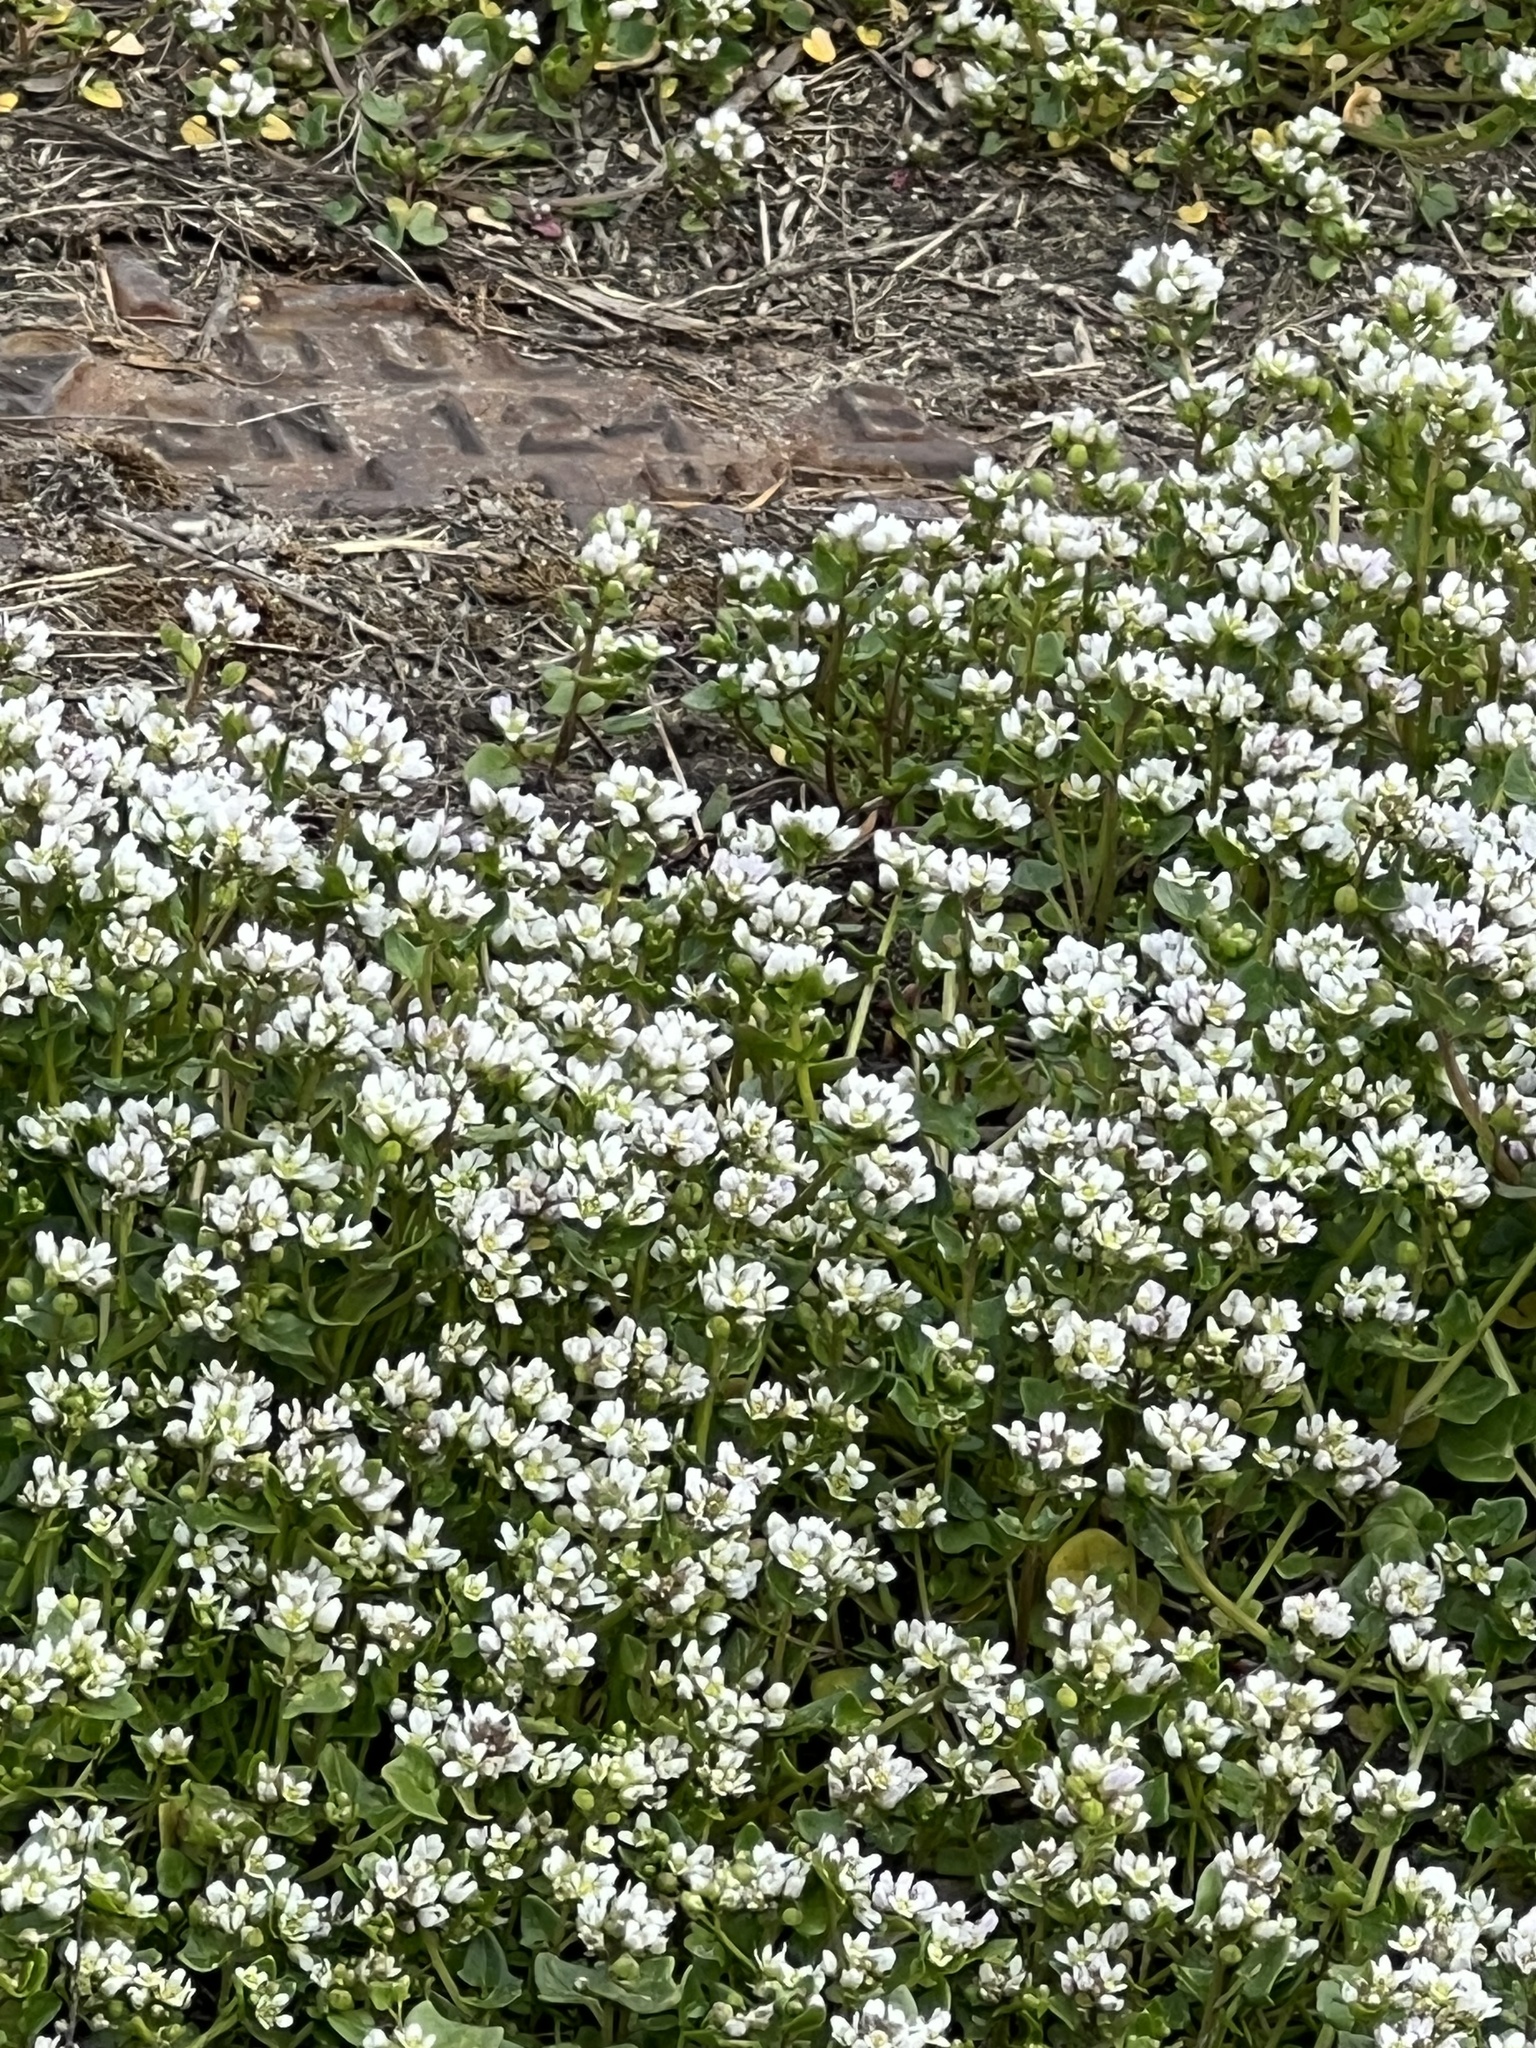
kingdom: Plantae
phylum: Tracheophyta
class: Magnoliopsida
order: Brassicales
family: Brassicaceae
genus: Cochlearia
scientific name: Cochlearia danica
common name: Early scurvygrass
